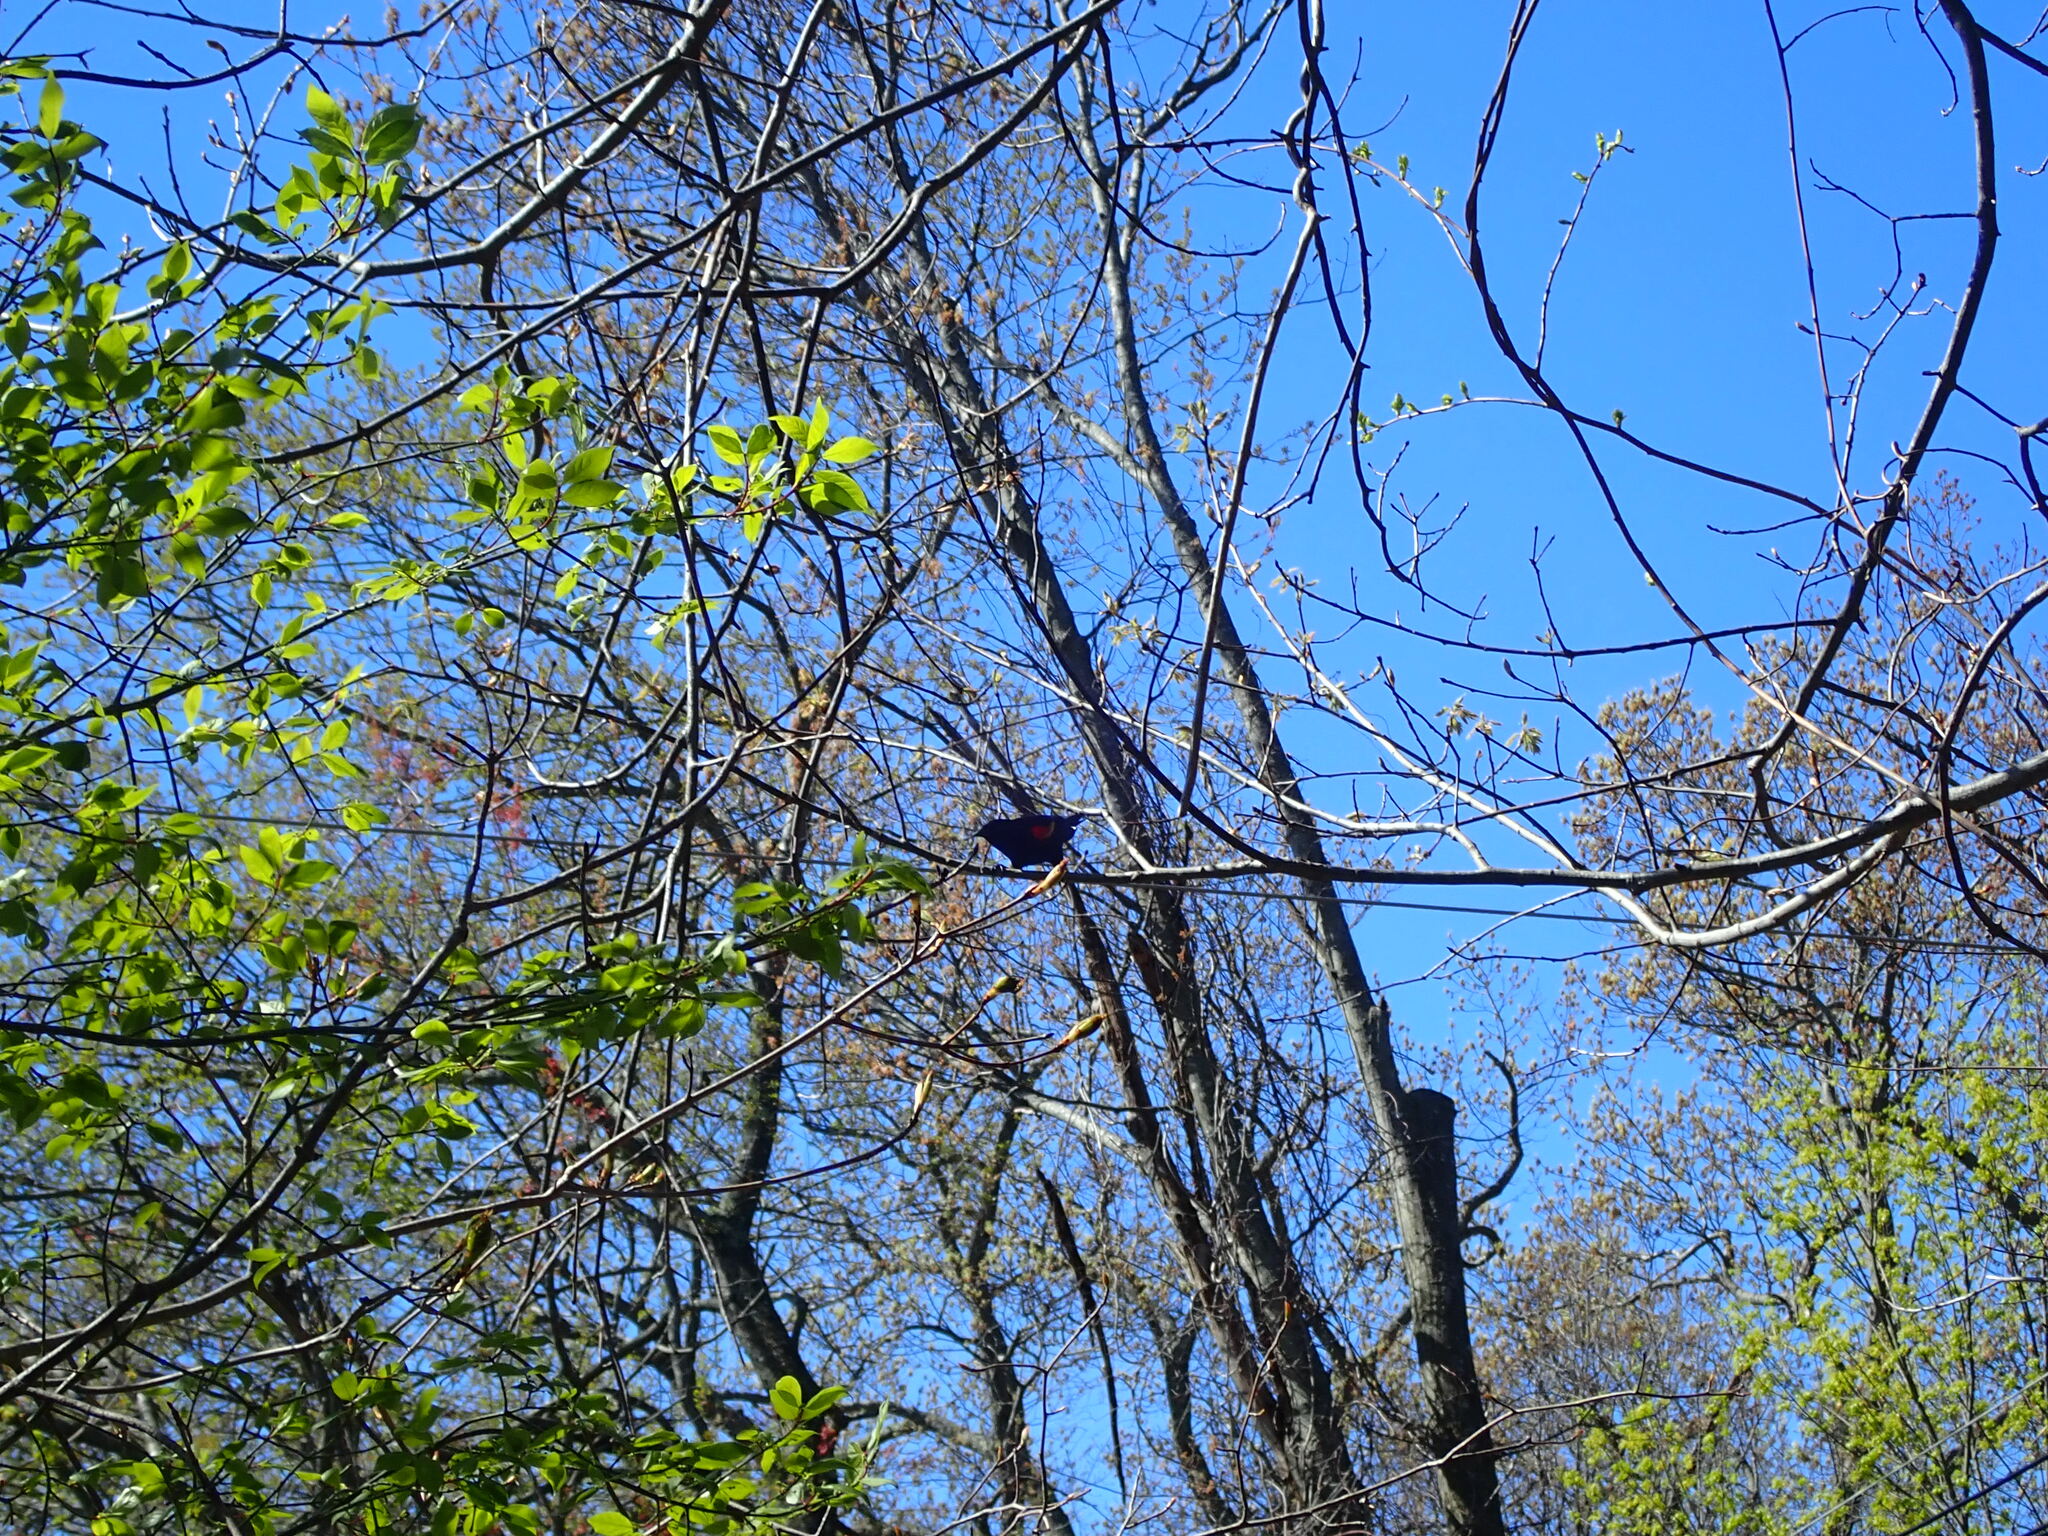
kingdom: Animalia
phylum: Chordata
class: Aves
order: Passeriformes
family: Icteridae
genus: Agelaius
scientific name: Agelaius phoeniceus
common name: Red-winged blackbird
